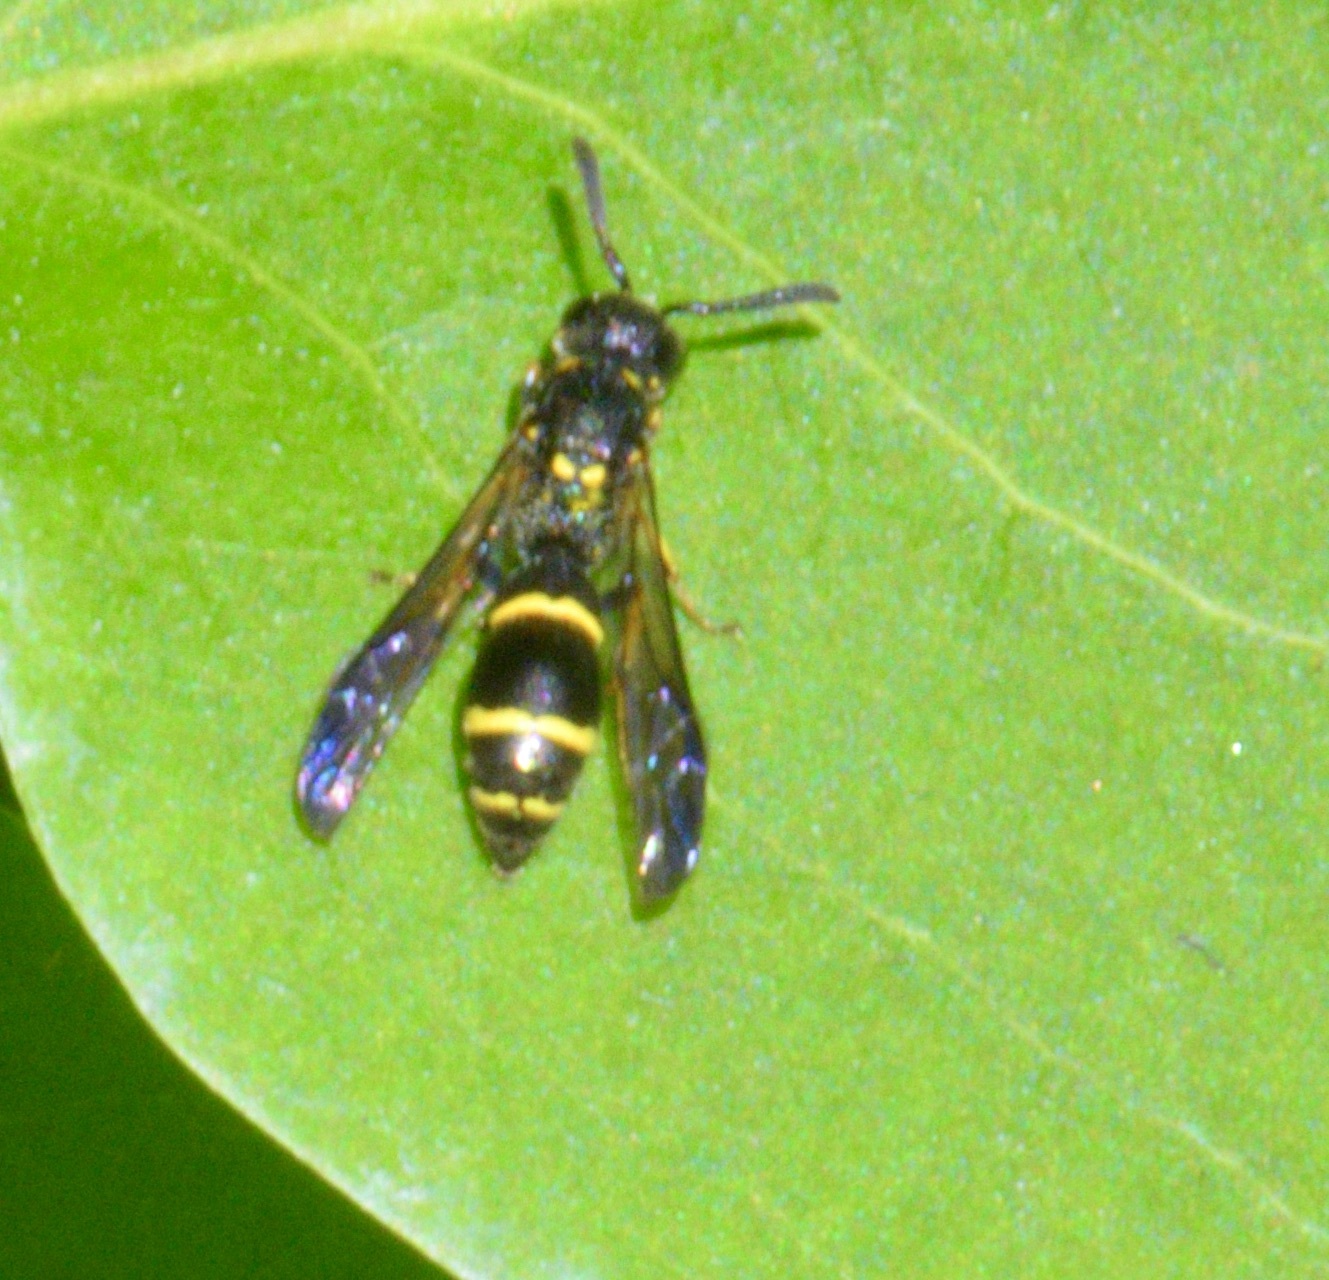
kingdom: Animalia
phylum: Arthropoda
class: Insecta
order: Hymenoptera
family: Eumenidae
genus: Symmorphus
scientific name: Symmorphus
